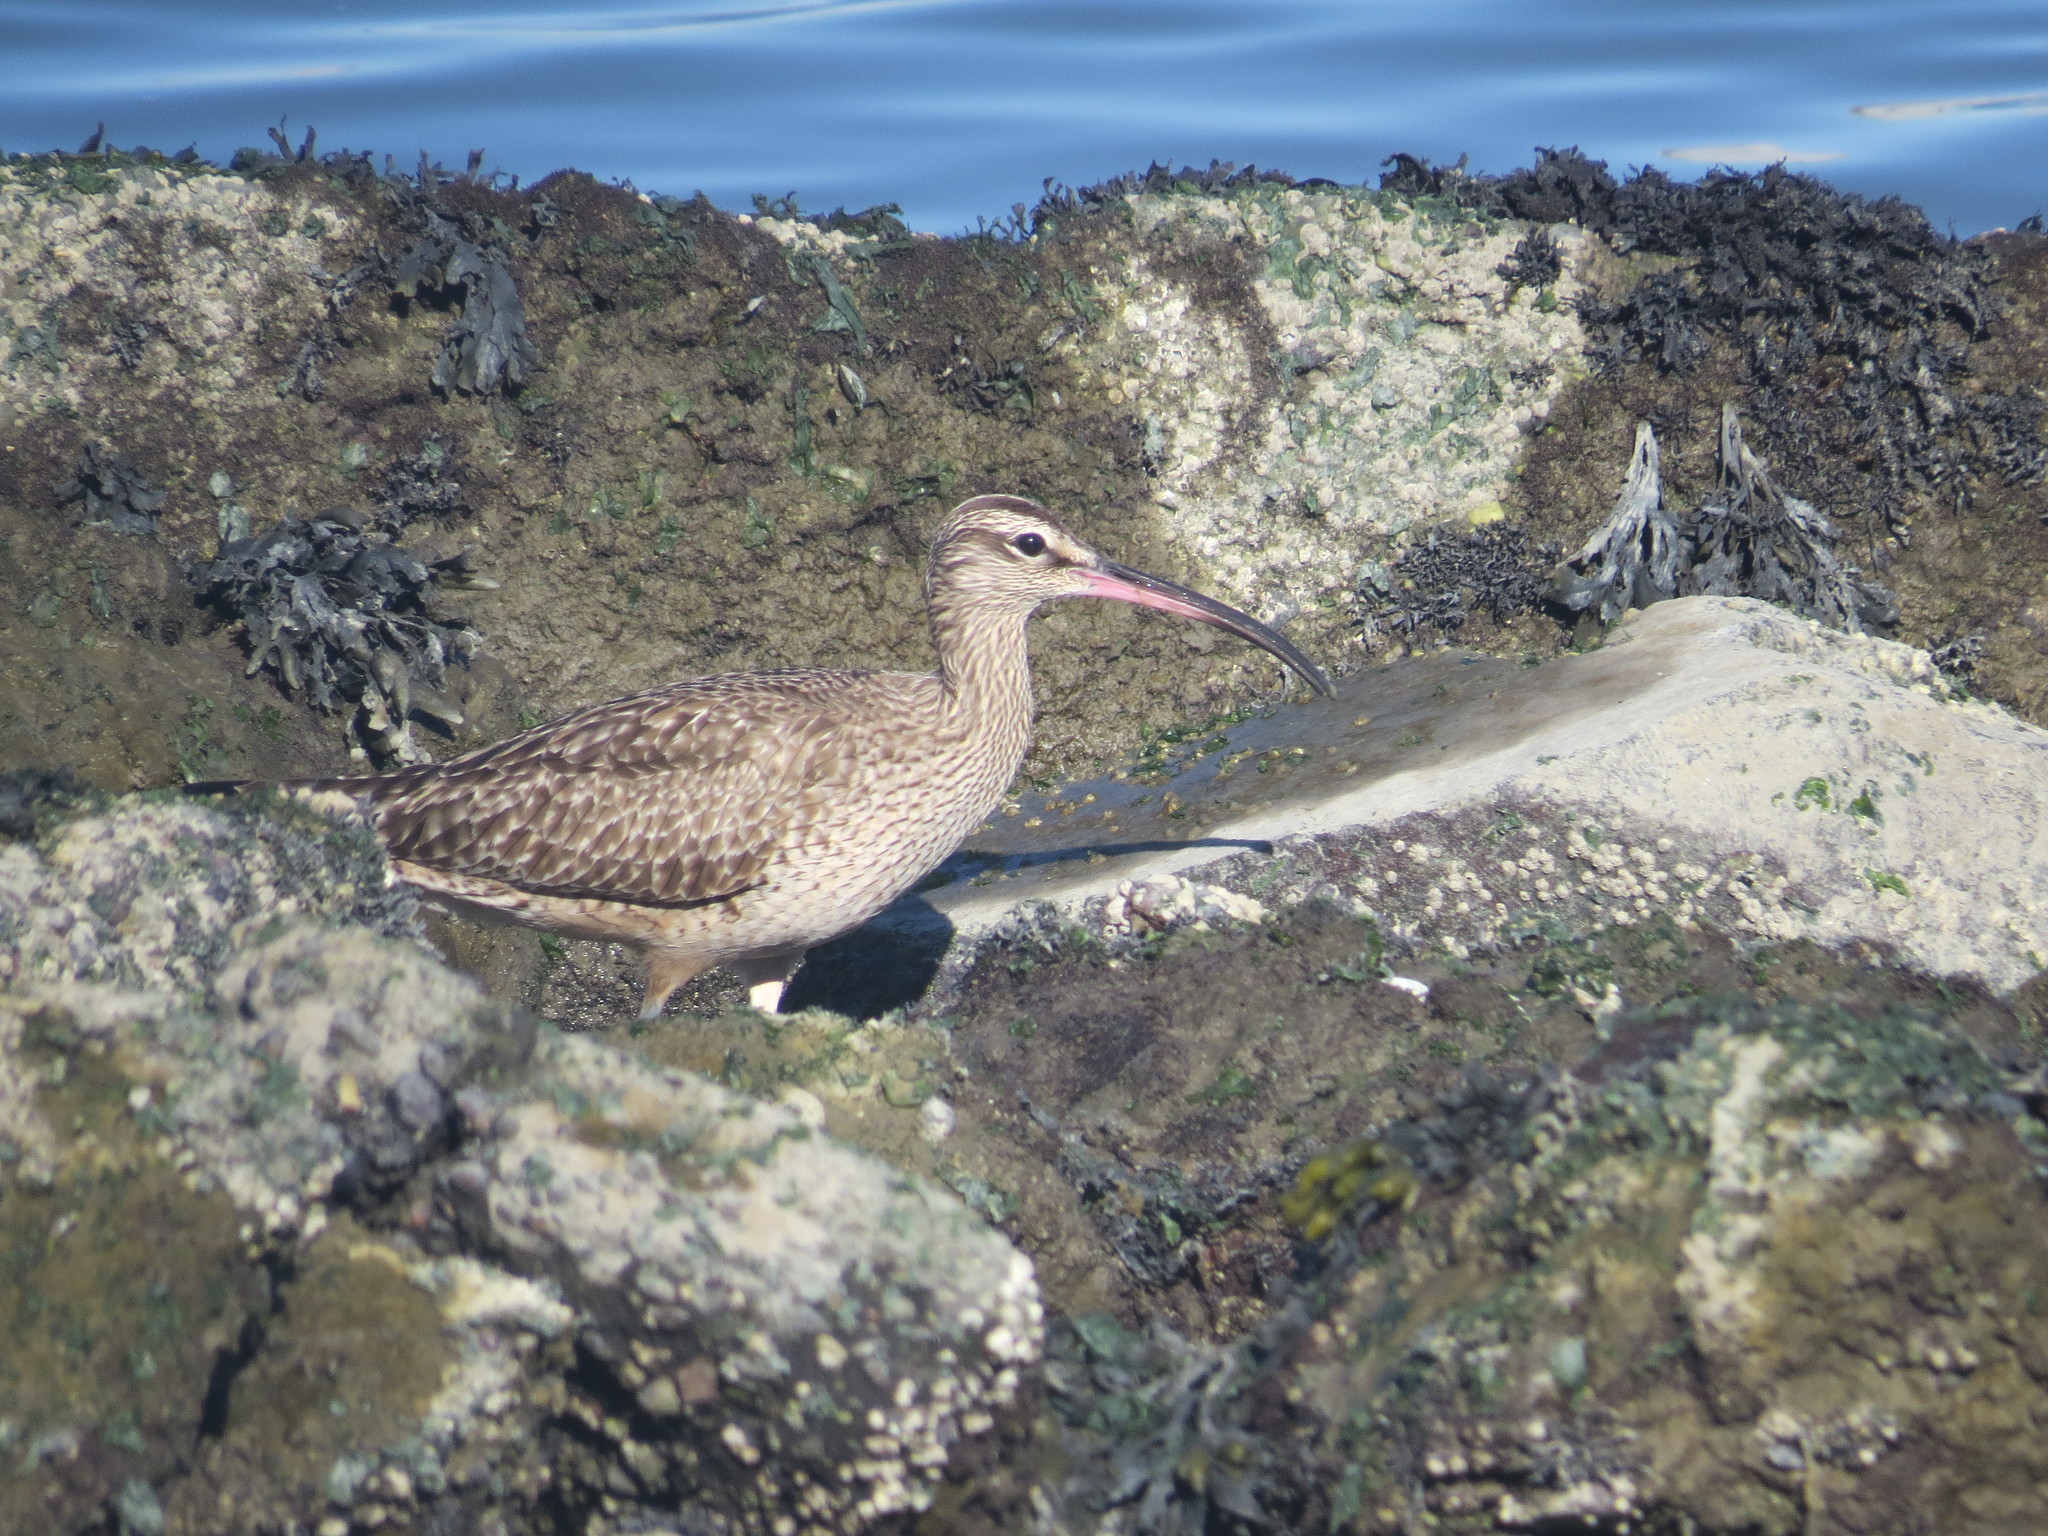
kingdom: Animalia
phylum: Chordata
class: Aves
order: Charadriiformes
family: Scolopacidae
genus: Numenius
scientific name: Numenius phaeopus
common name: Whimbrel
